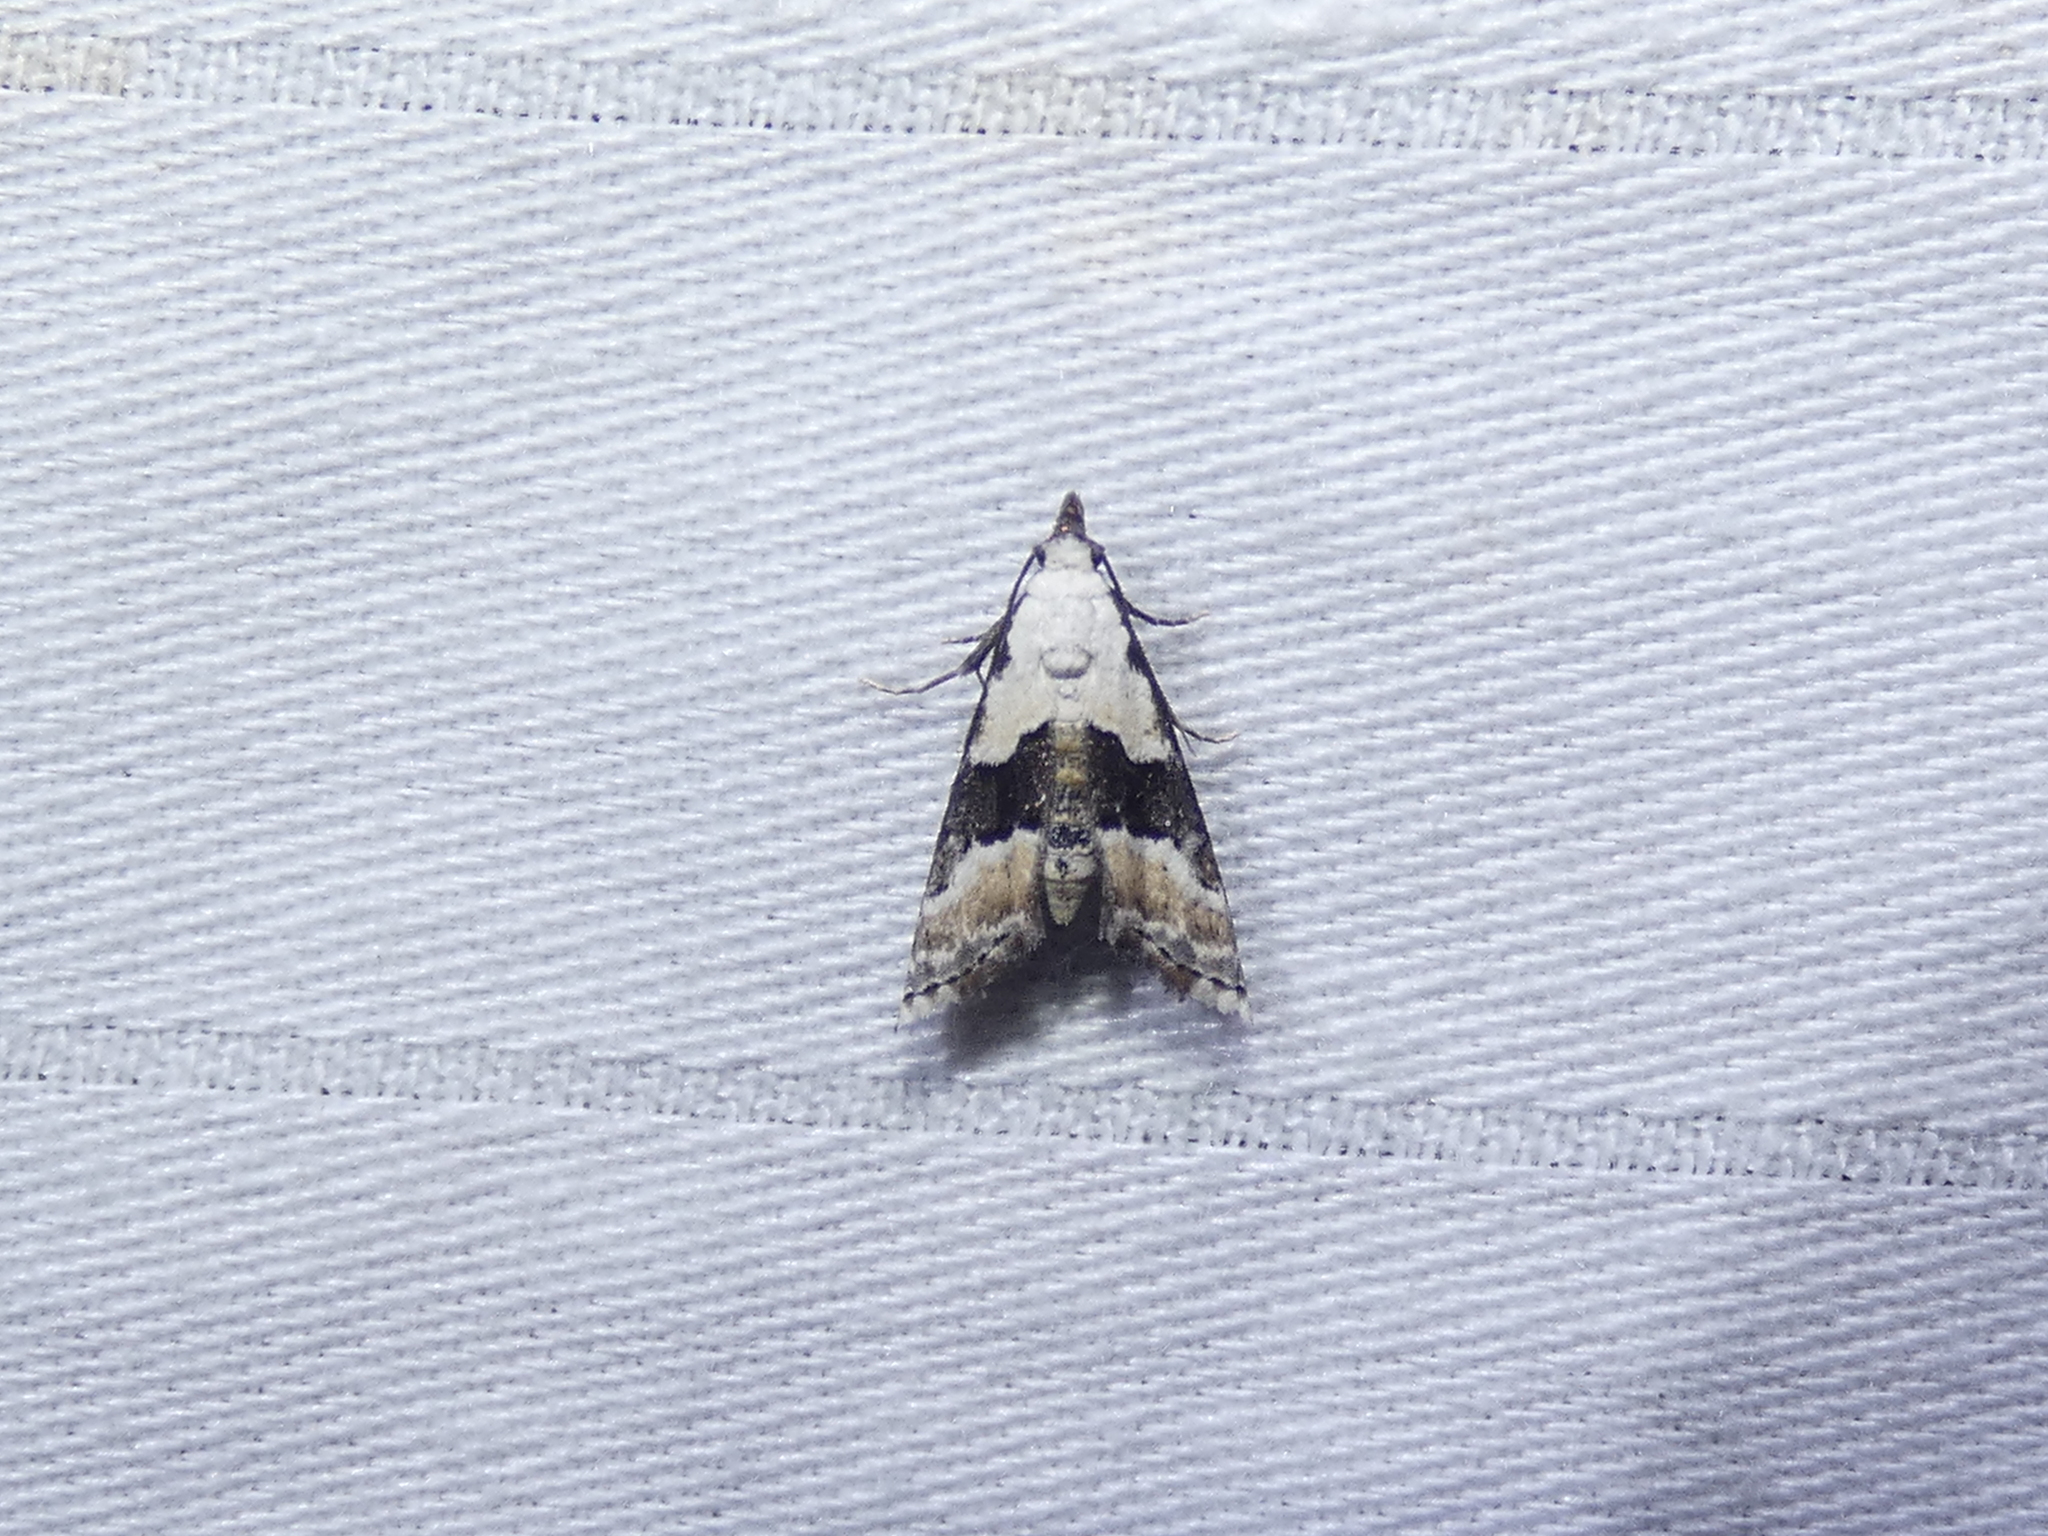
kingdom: Animalia
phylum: Arthropoda
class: Insecta
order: Lepidoptera
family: Noctuidae
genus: Nigetia
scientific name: Nigetia formosalis
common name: Thin-winged owlet
